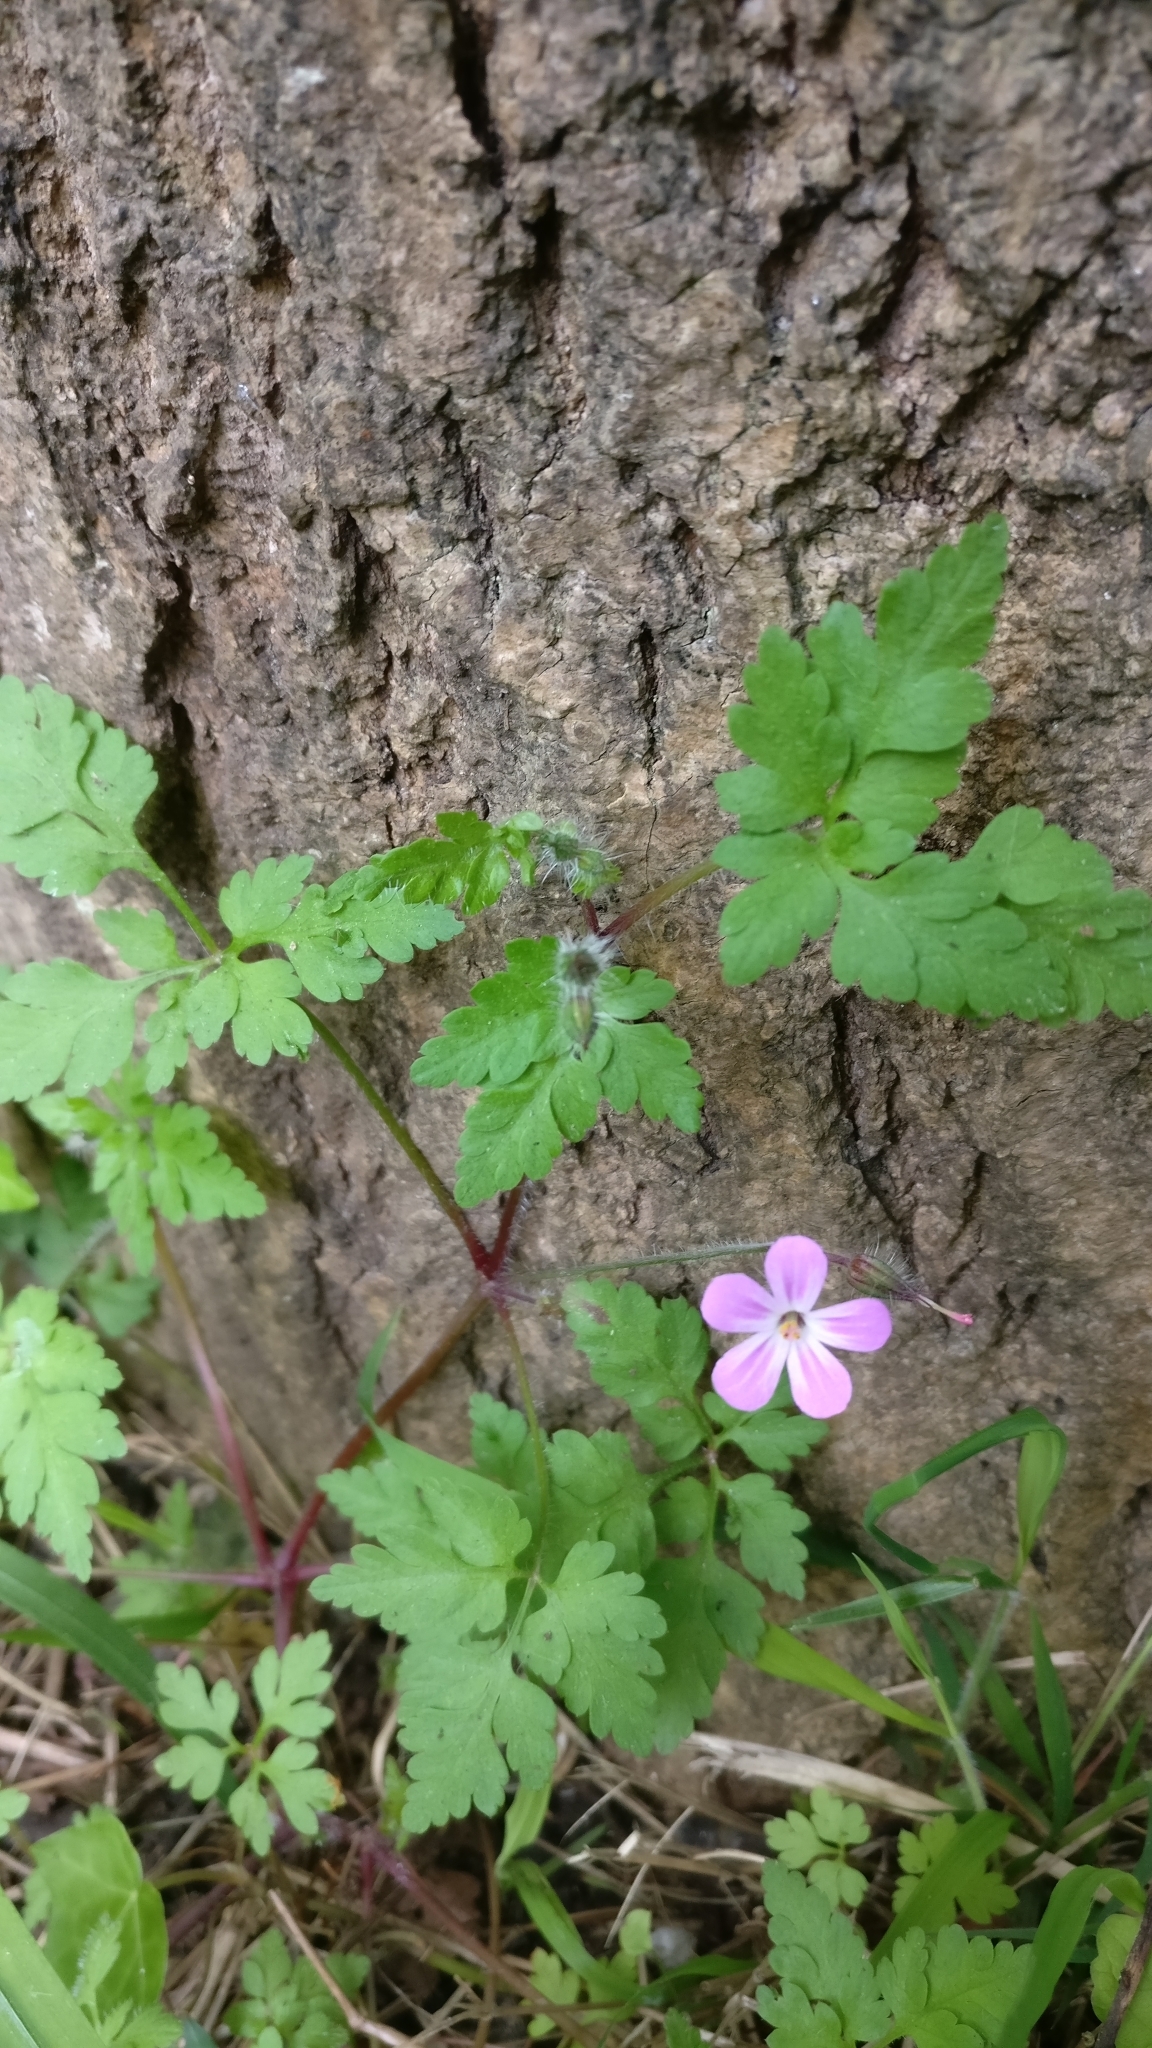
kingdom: Plantae
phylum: Tracheophyta
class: Magnoliopsida
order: Geraniales
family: Geraniaceae
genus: Geranium
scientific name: Geranium robertianum
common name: Herb-robert
